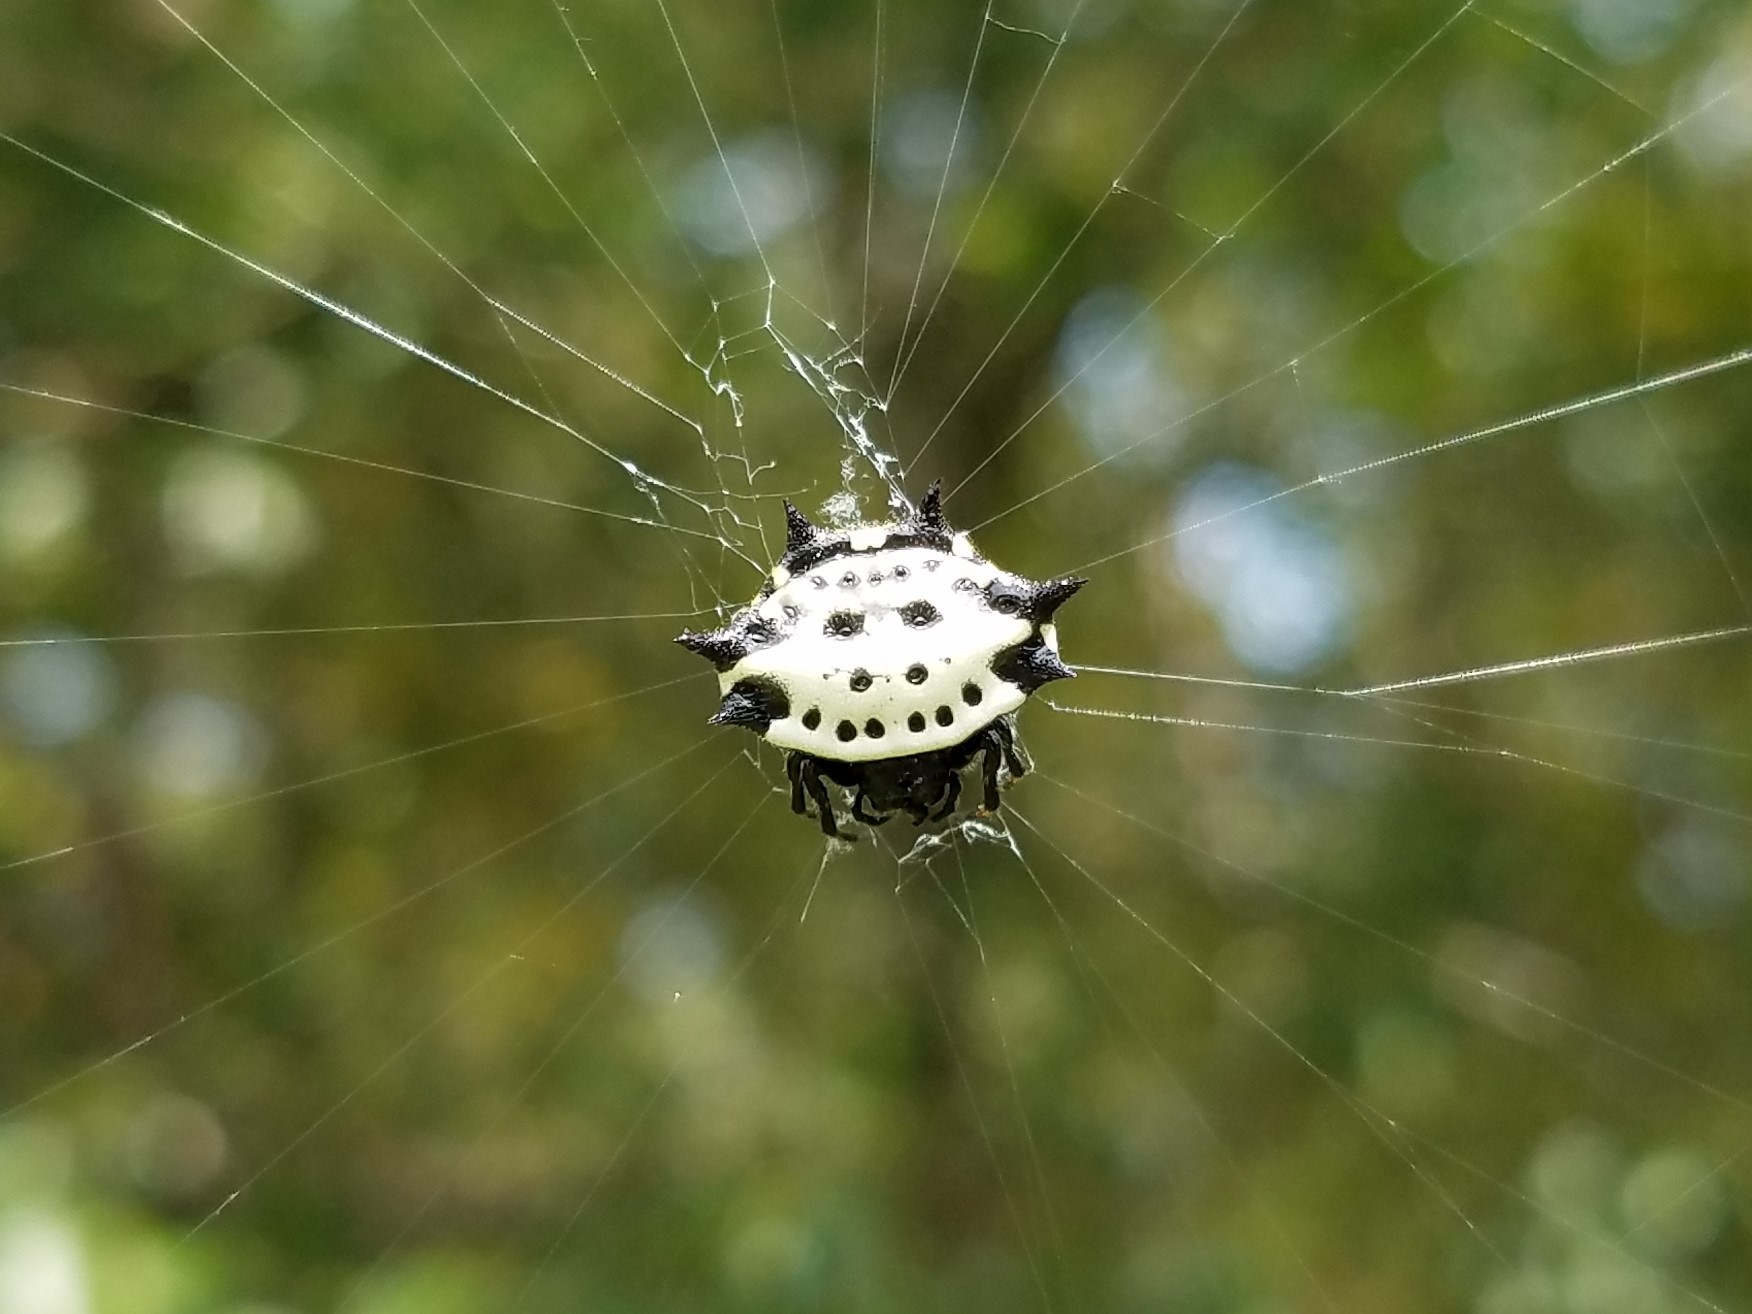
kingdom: Animalia
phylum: Arthropoda
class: Arachnida
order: Araneae
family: Araneidae
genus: Gasteracantha
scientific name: Gasteracantha cancriformis
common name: Orb weavers
